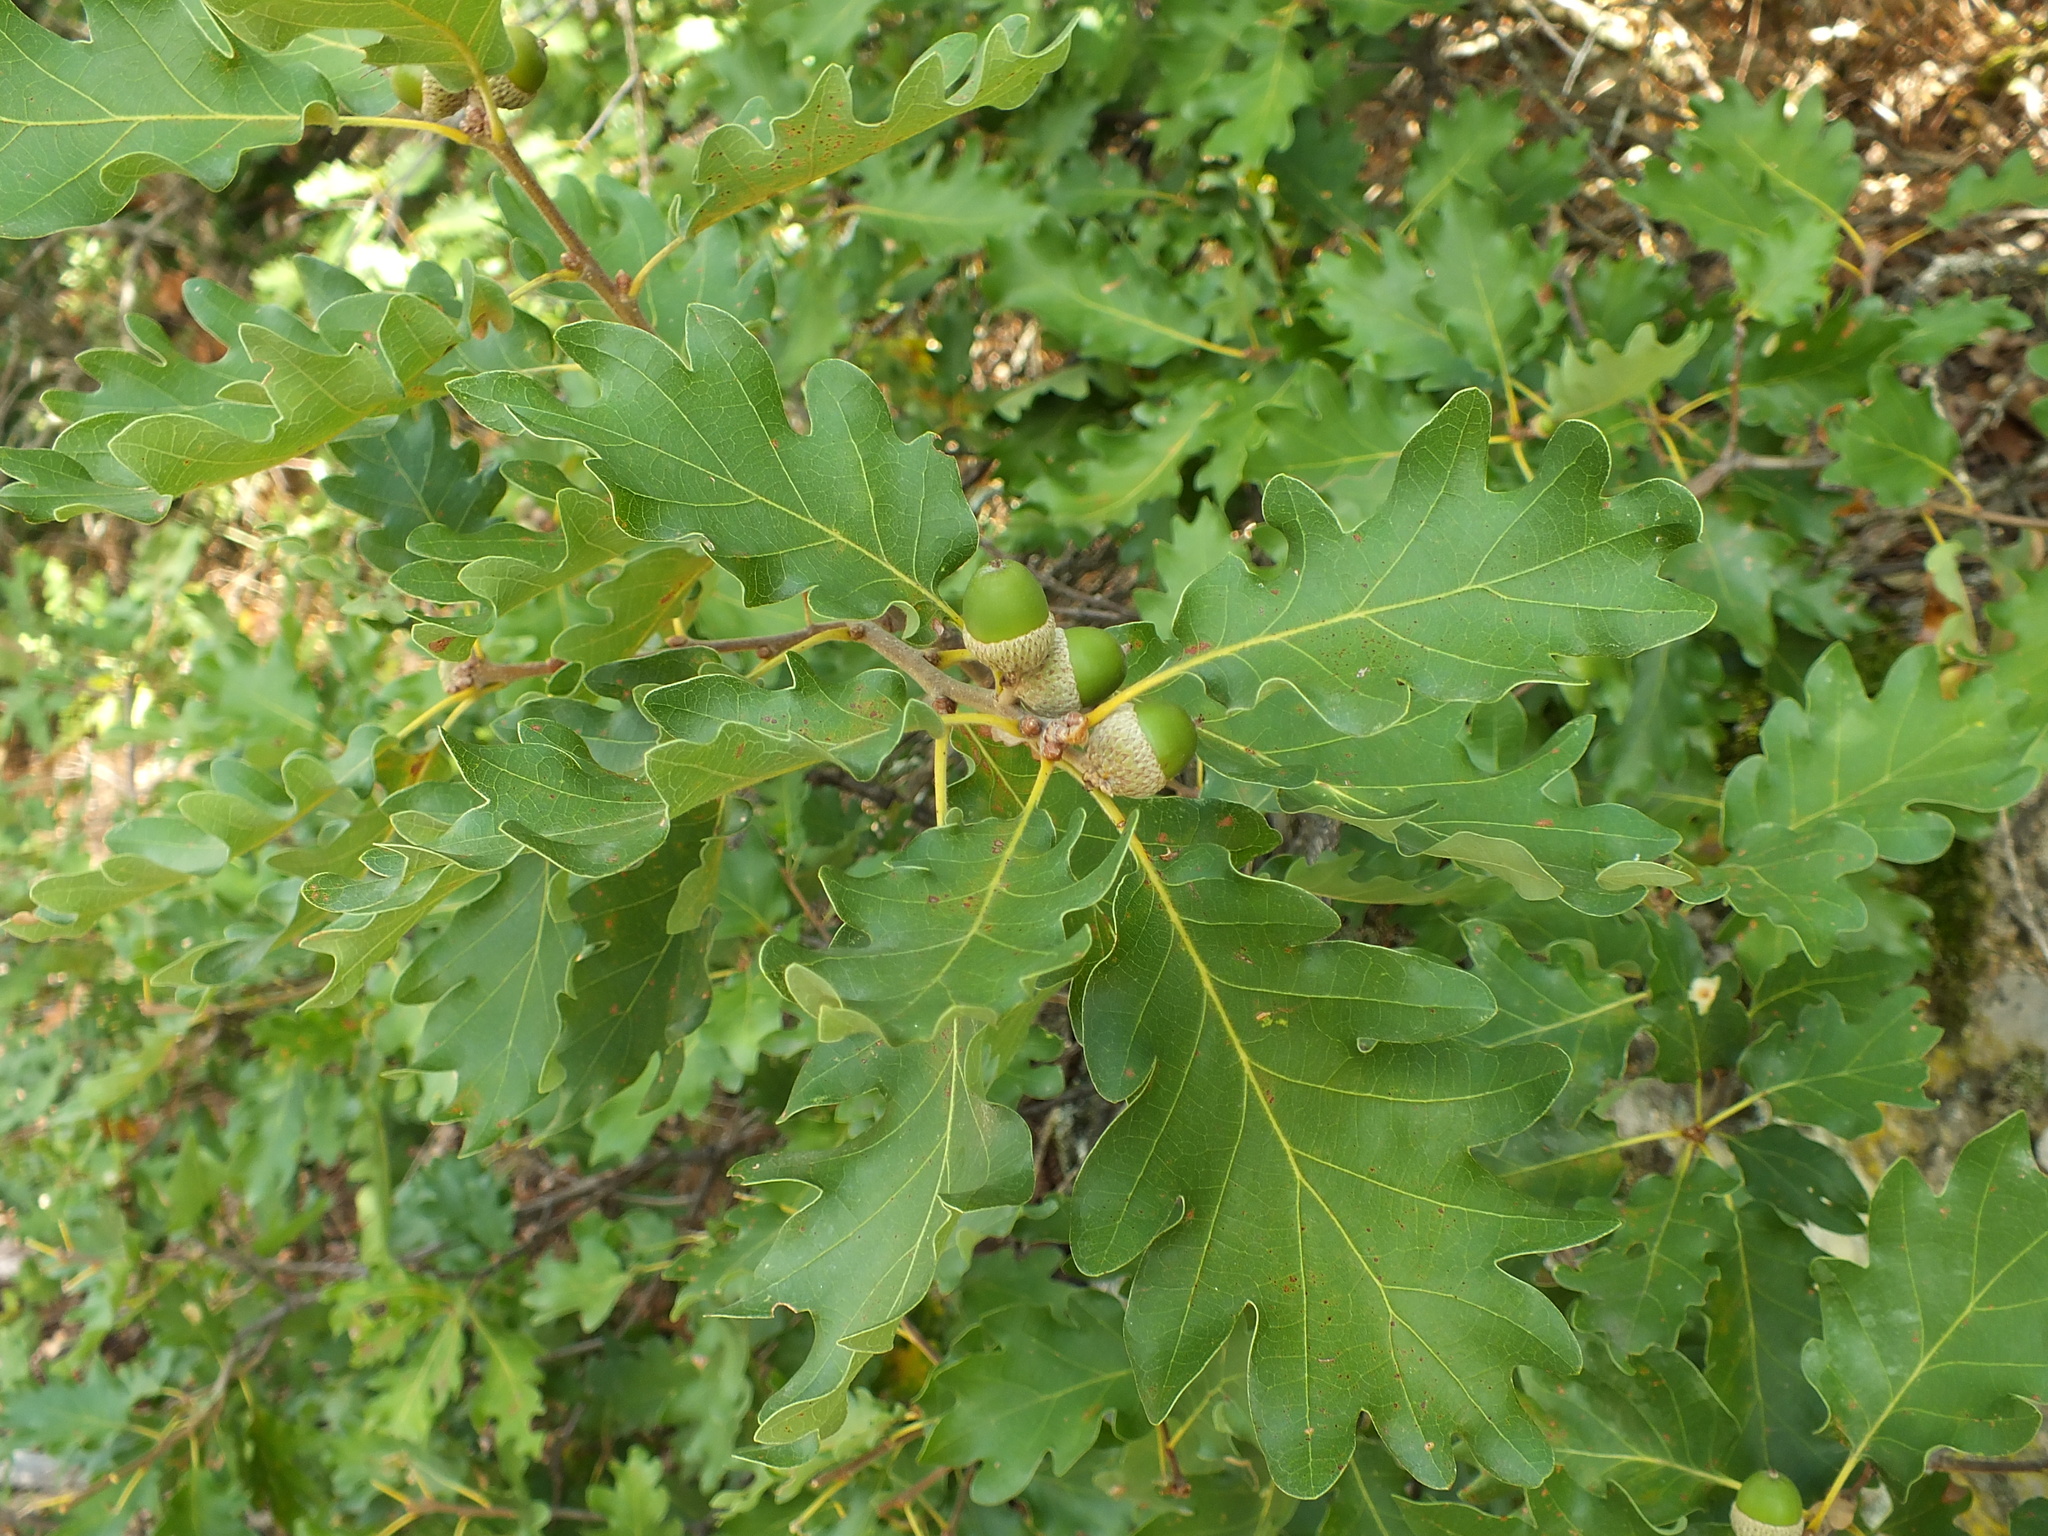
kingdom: Plantae
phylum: Tracheophyta
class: Magnoliopsida
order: Fagales
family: Fagaceae
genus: Quercus
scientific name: Quercus pubescens
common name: Downy oak
